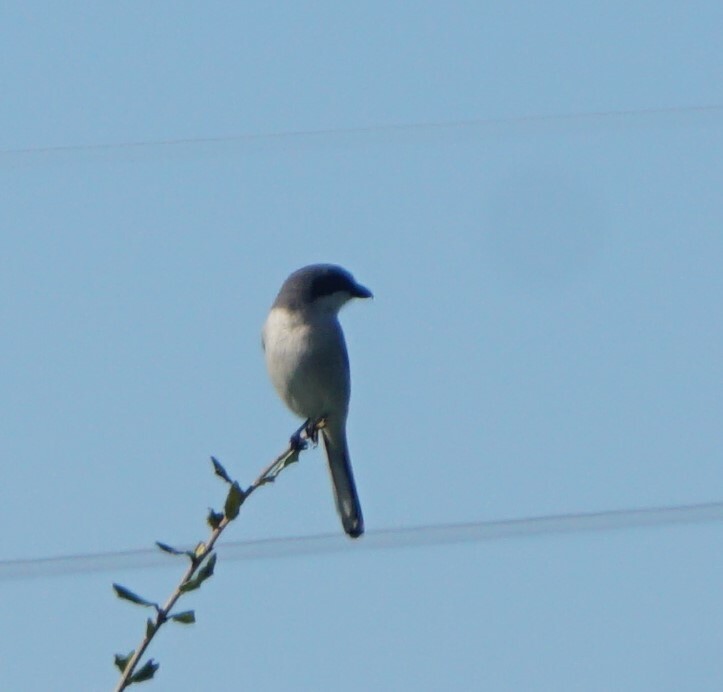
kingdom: Animalia
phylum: Chordata
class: Aves
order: Passeriformes
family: Laniidae
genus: Lanius
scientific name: Lanius ludovicianus
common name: Loggerhead shrike
